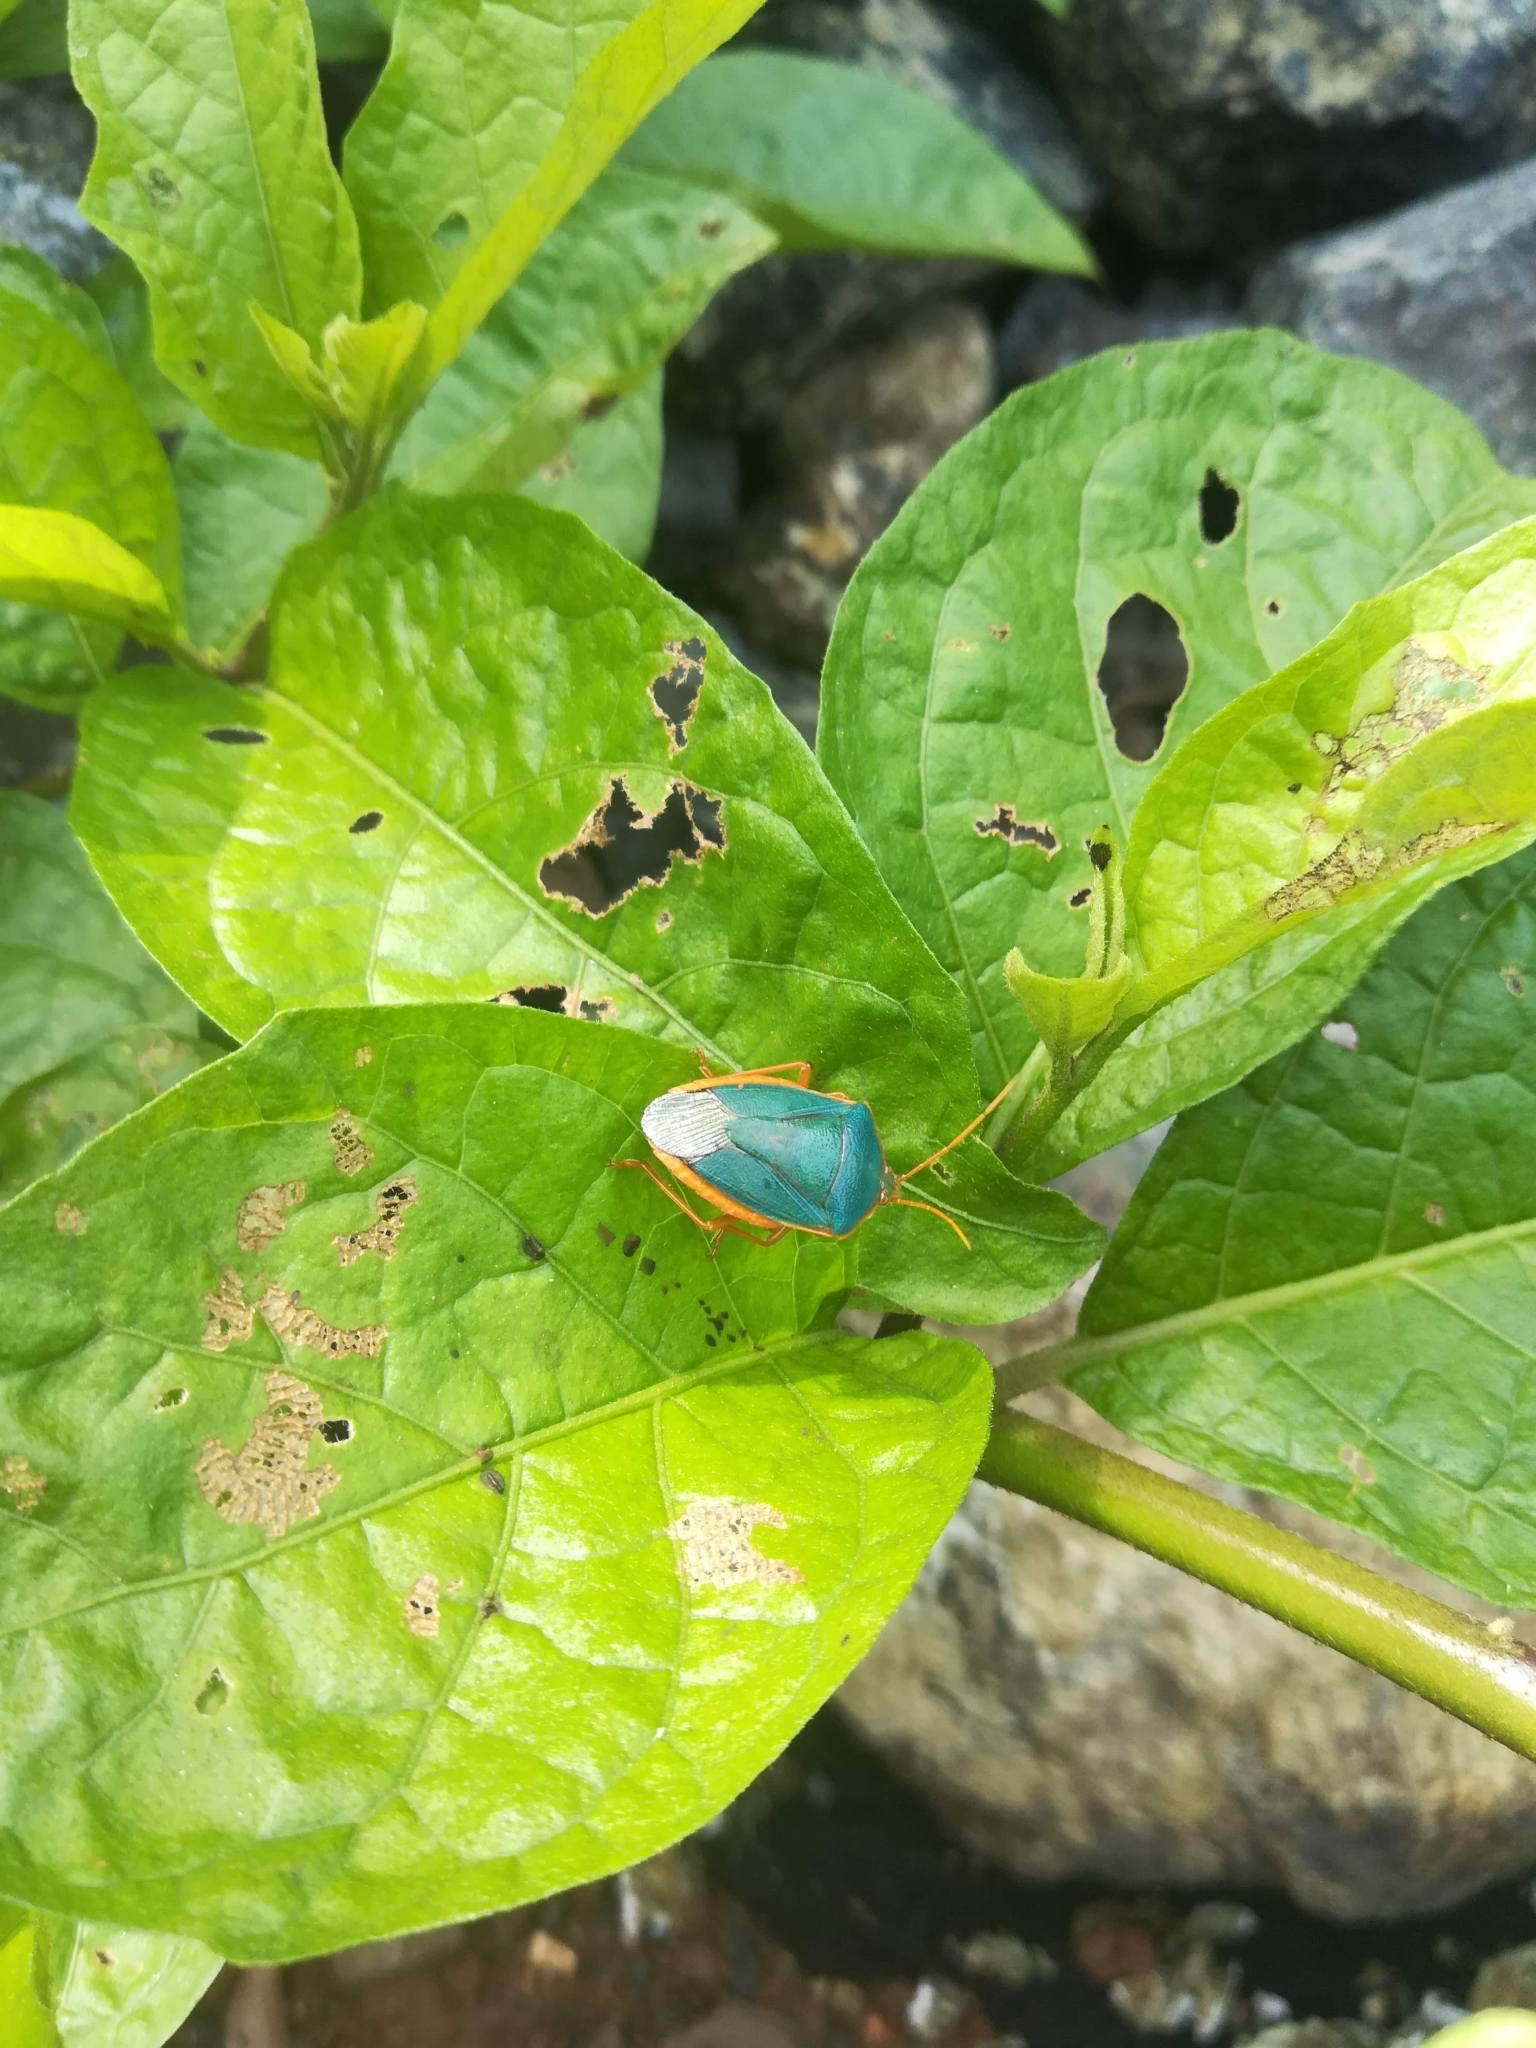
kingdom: Animalia
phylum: Arthropoda
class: Insecta
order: Hemiptera
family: Pentatomidae
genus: Edessa
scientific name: Edessa rufomarginata
